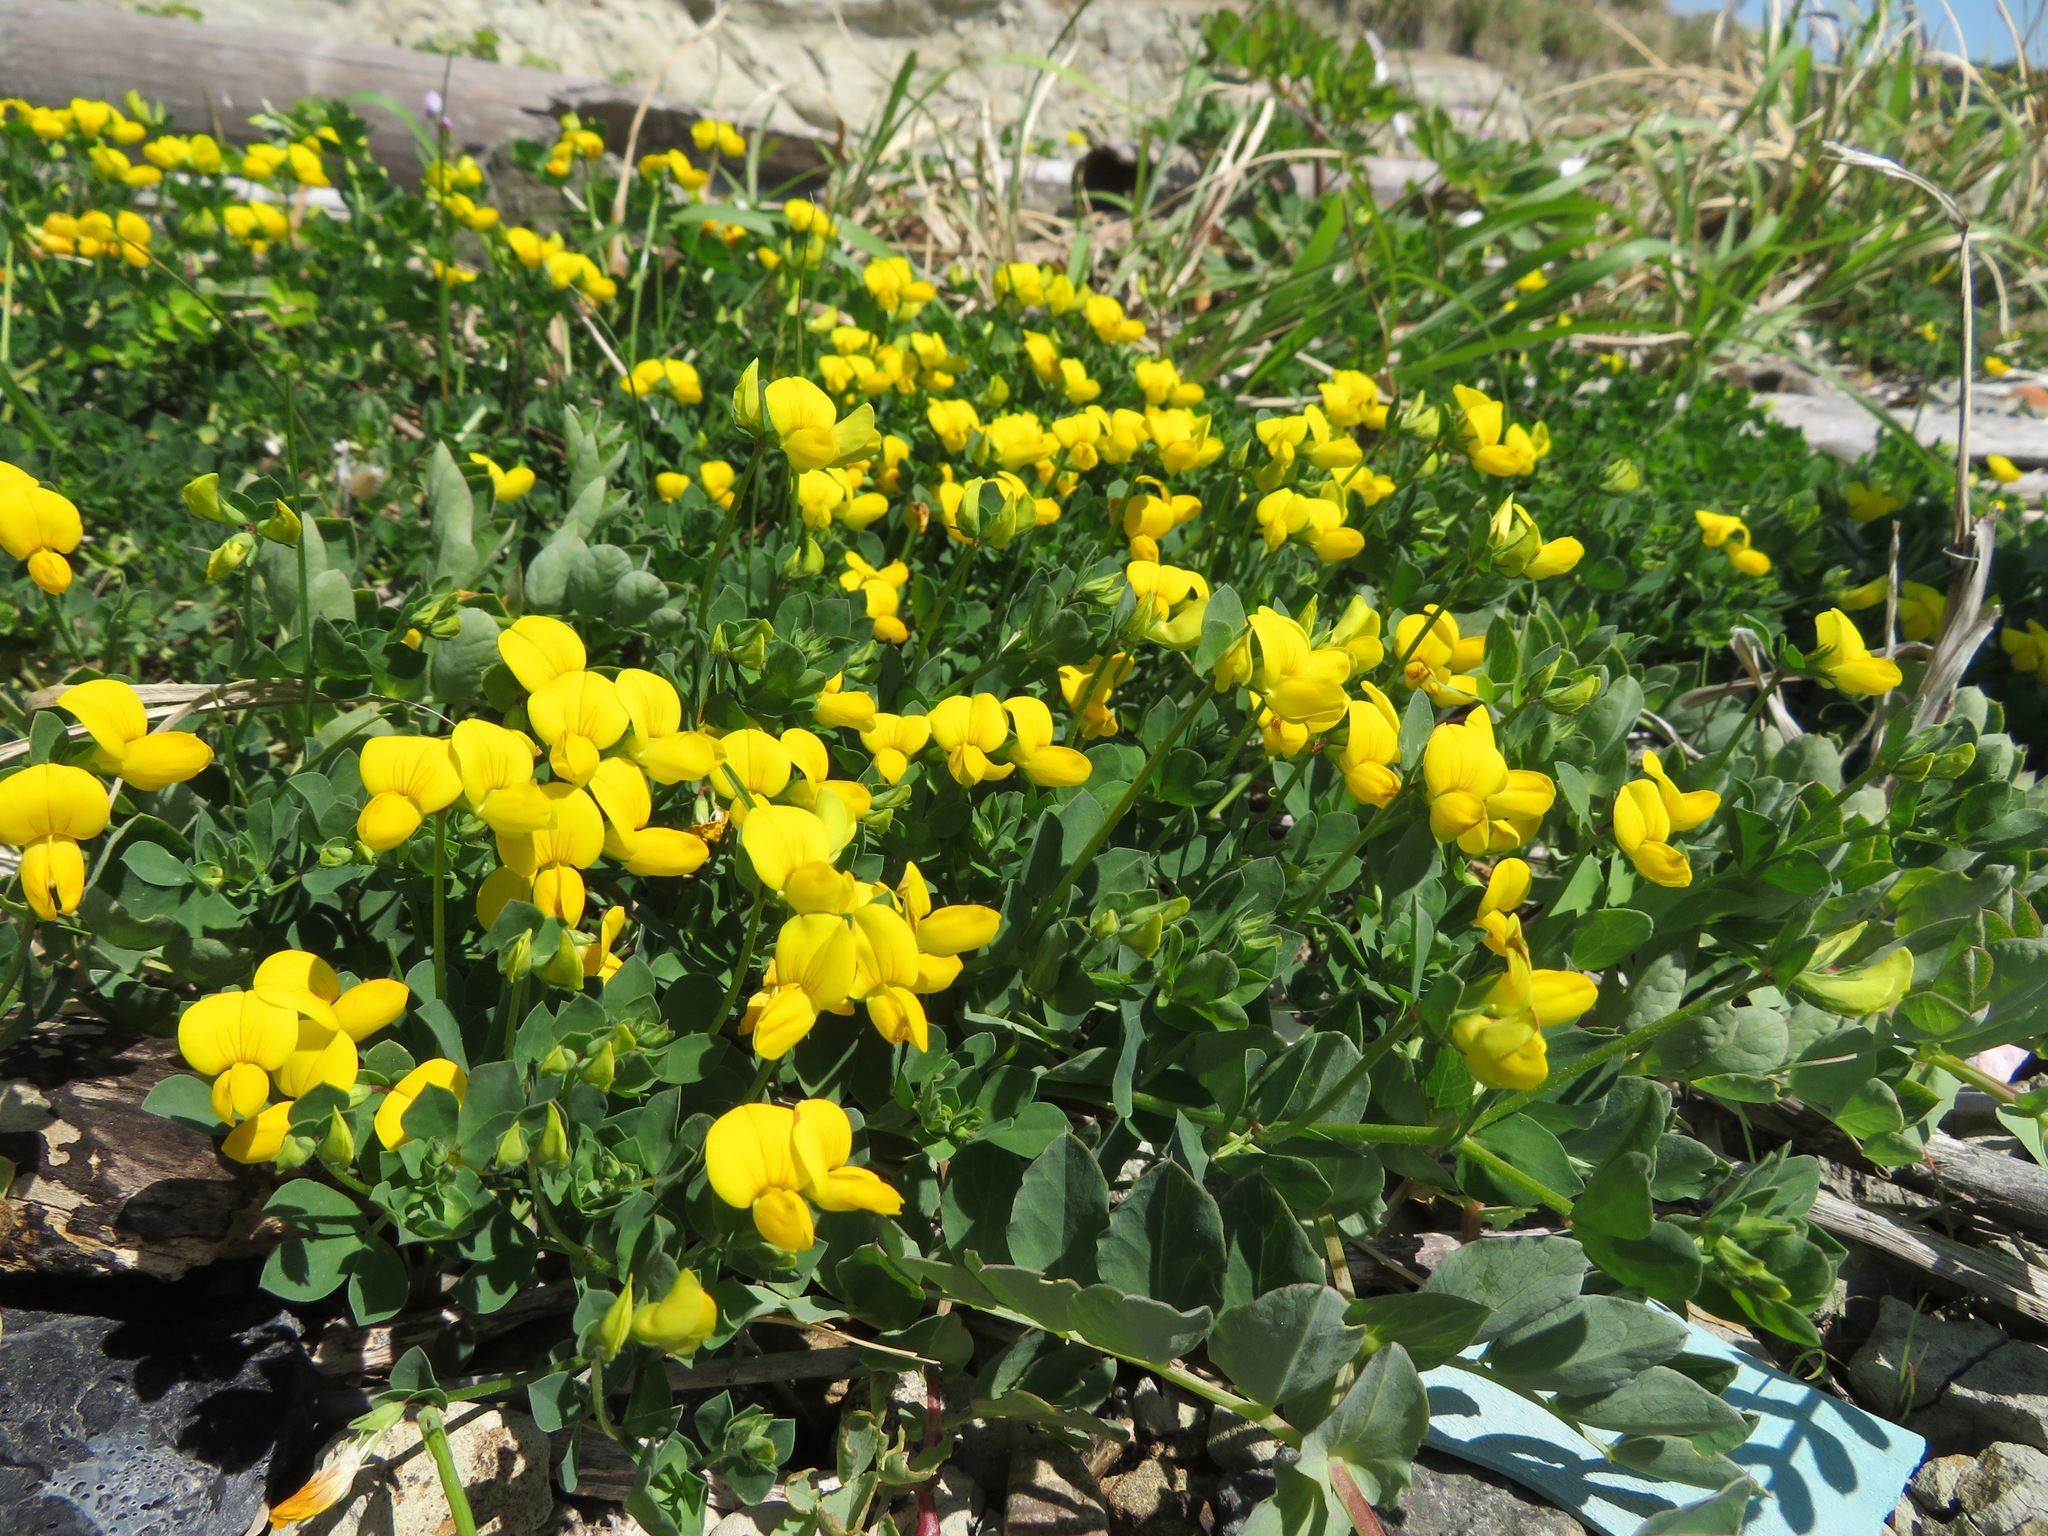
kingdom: Plantae
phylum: Tracheophyta
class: Magnoliopsida
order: Fabales
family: Fabaceae
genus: Lotus
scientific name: Lotus japonicus
